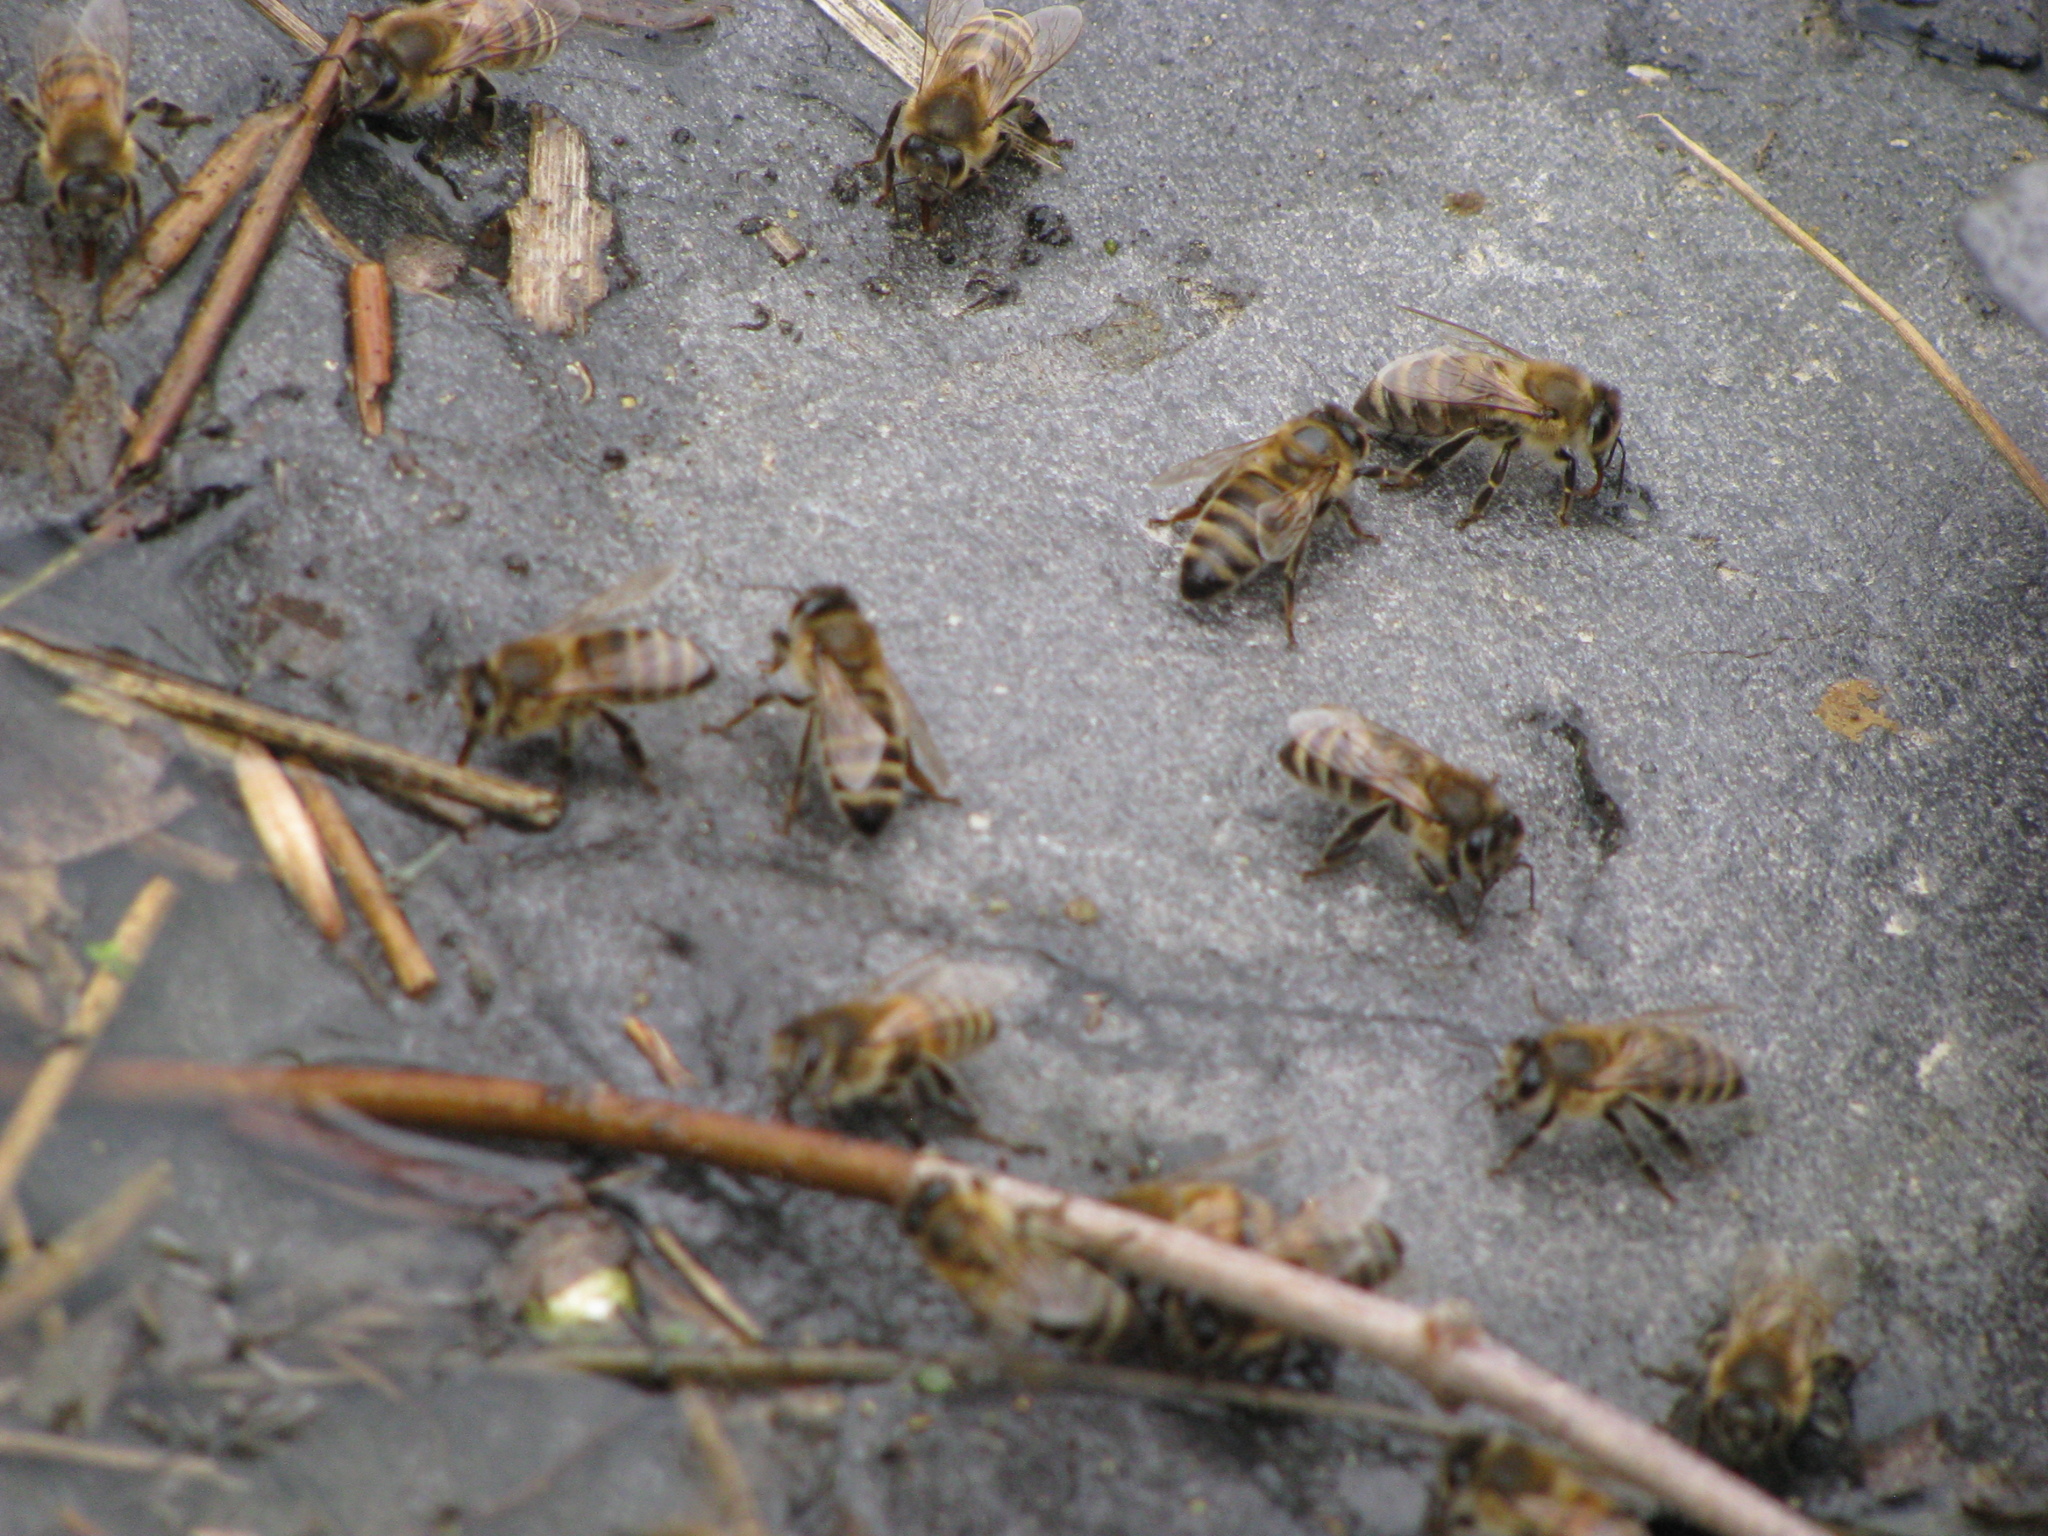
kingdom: Animalia
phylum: Arthropoda
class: Insecta
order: Hymenoptera
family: Apidae
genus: Apis
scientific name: Apis mellifera
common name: Honey bee
